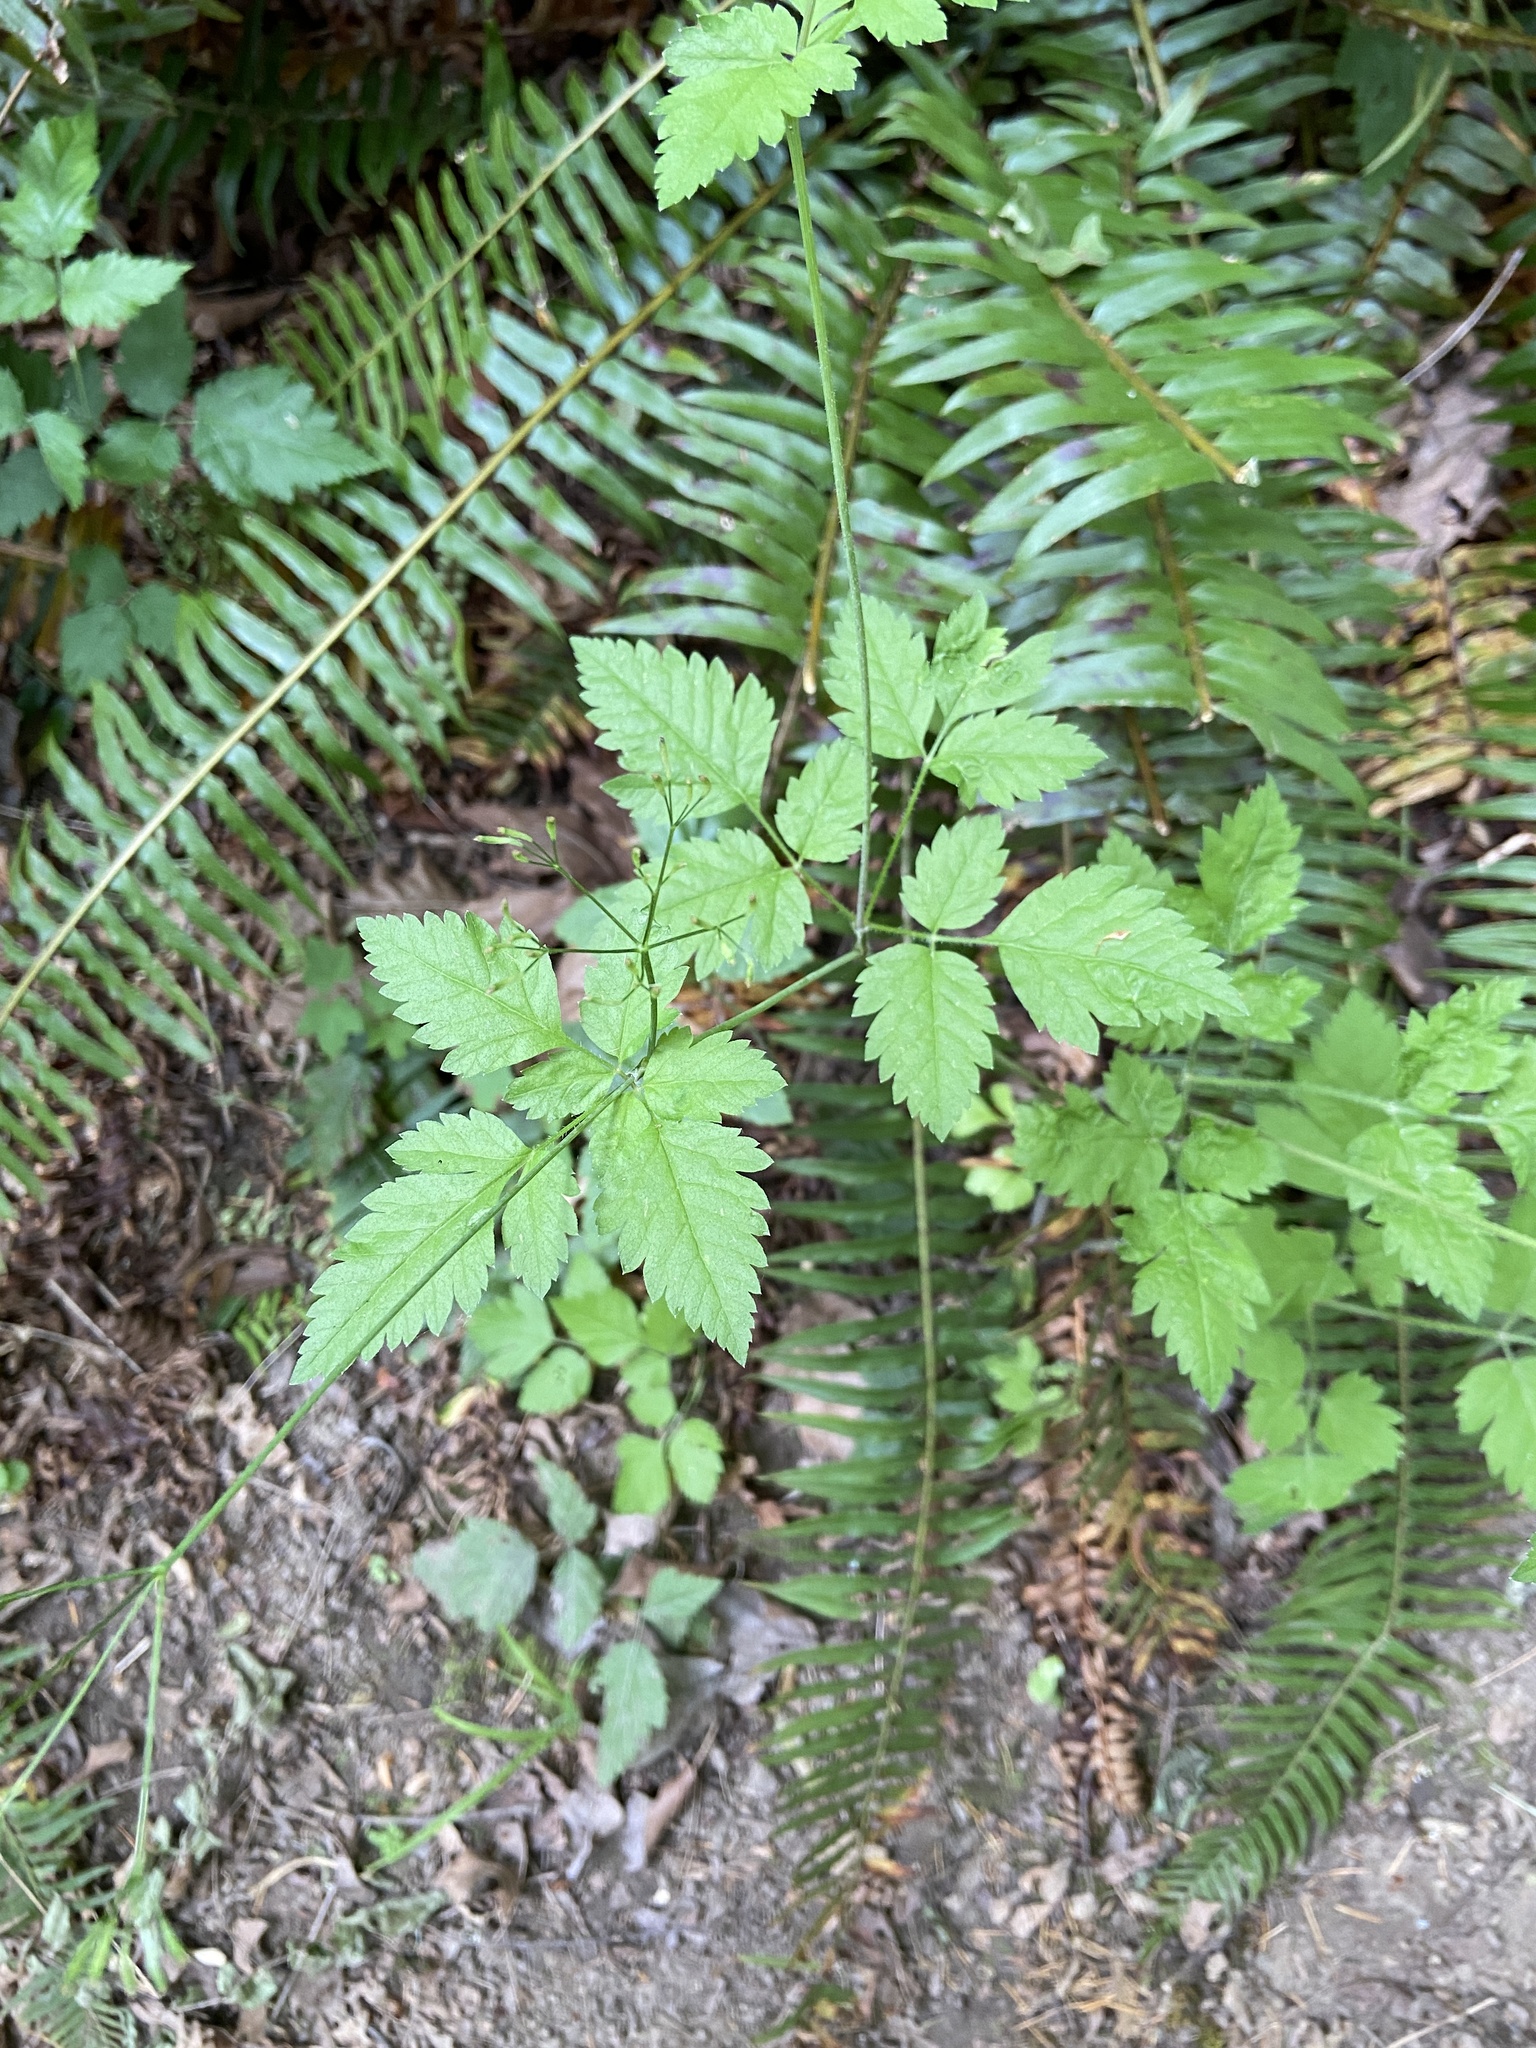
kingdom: Plantae
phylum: Tracheophyta
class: Magnoliopsida
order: Apiales
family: Apiaceae
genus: Osmorhiza
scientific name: Osmorhiza berteroi
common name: Mountain sweet cicely
